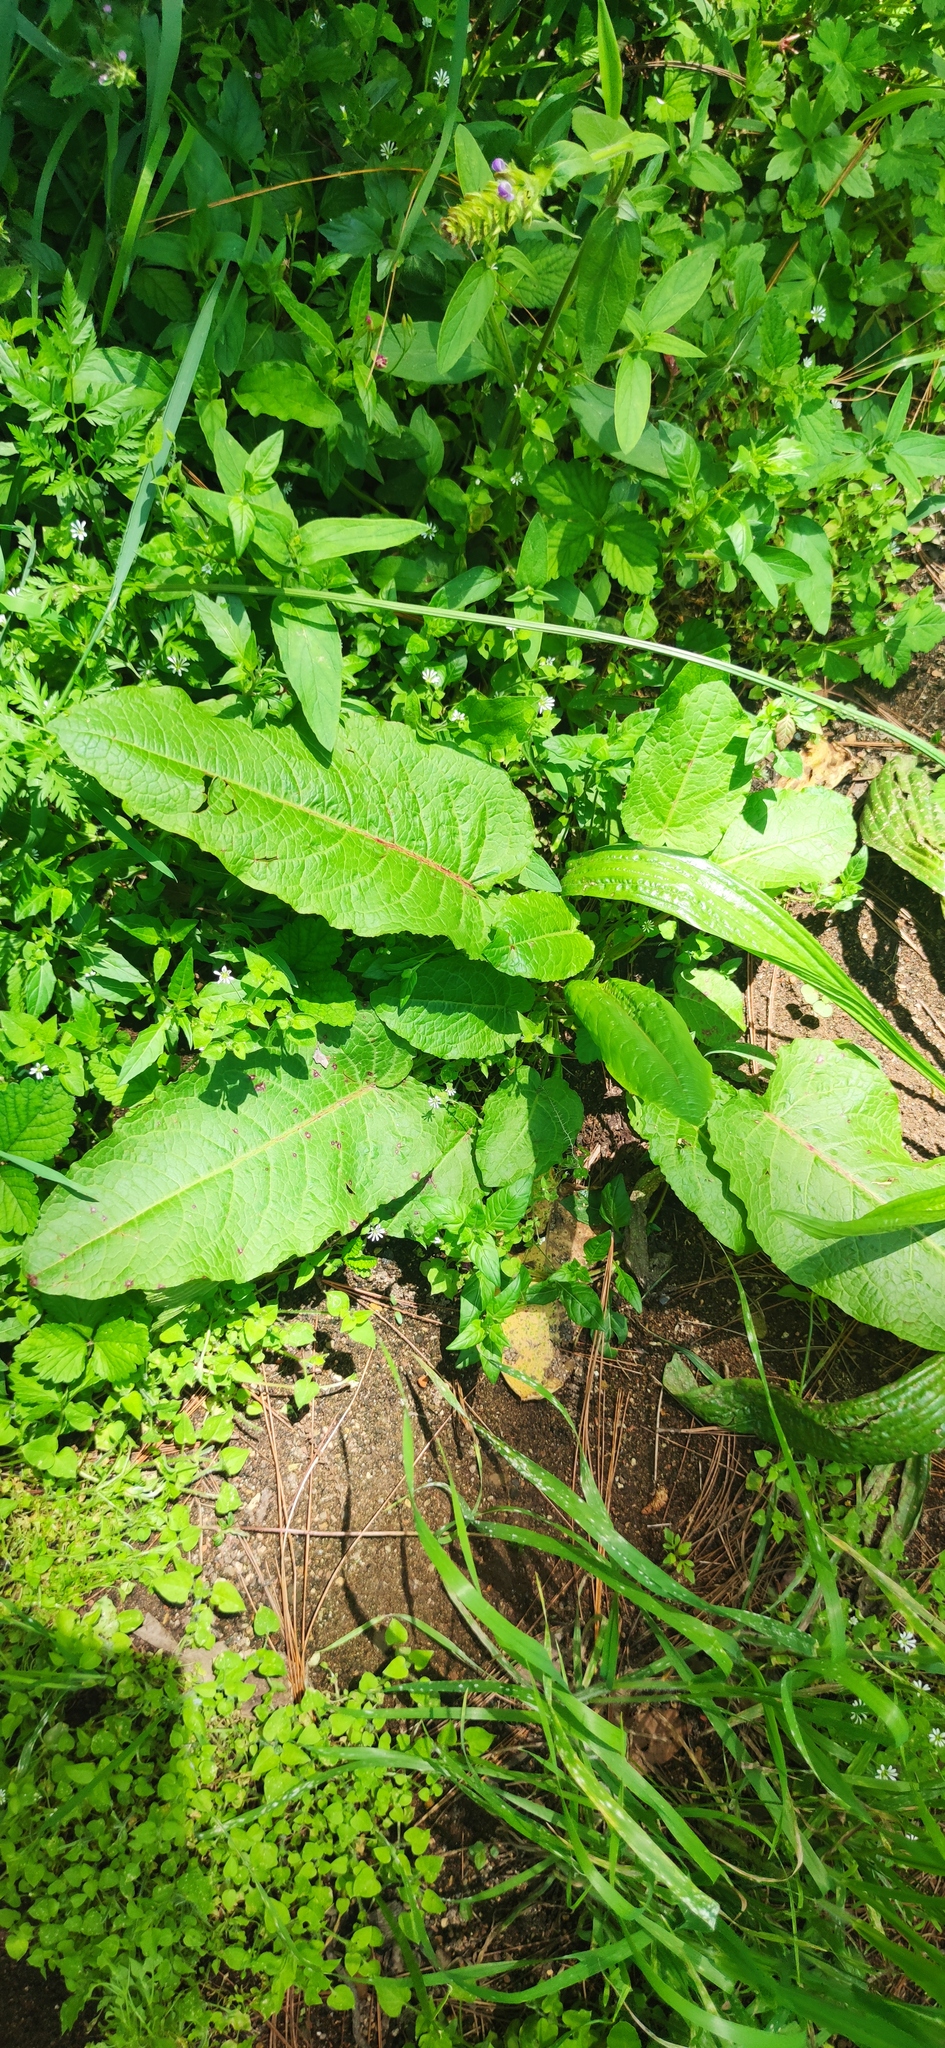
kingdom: Plantae
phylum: Tracheophyta
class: Magnoliopsida
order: Caryophyllales
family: Polygonaceae
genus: Rumex
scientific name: Rumex crispus
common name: Curled dock
